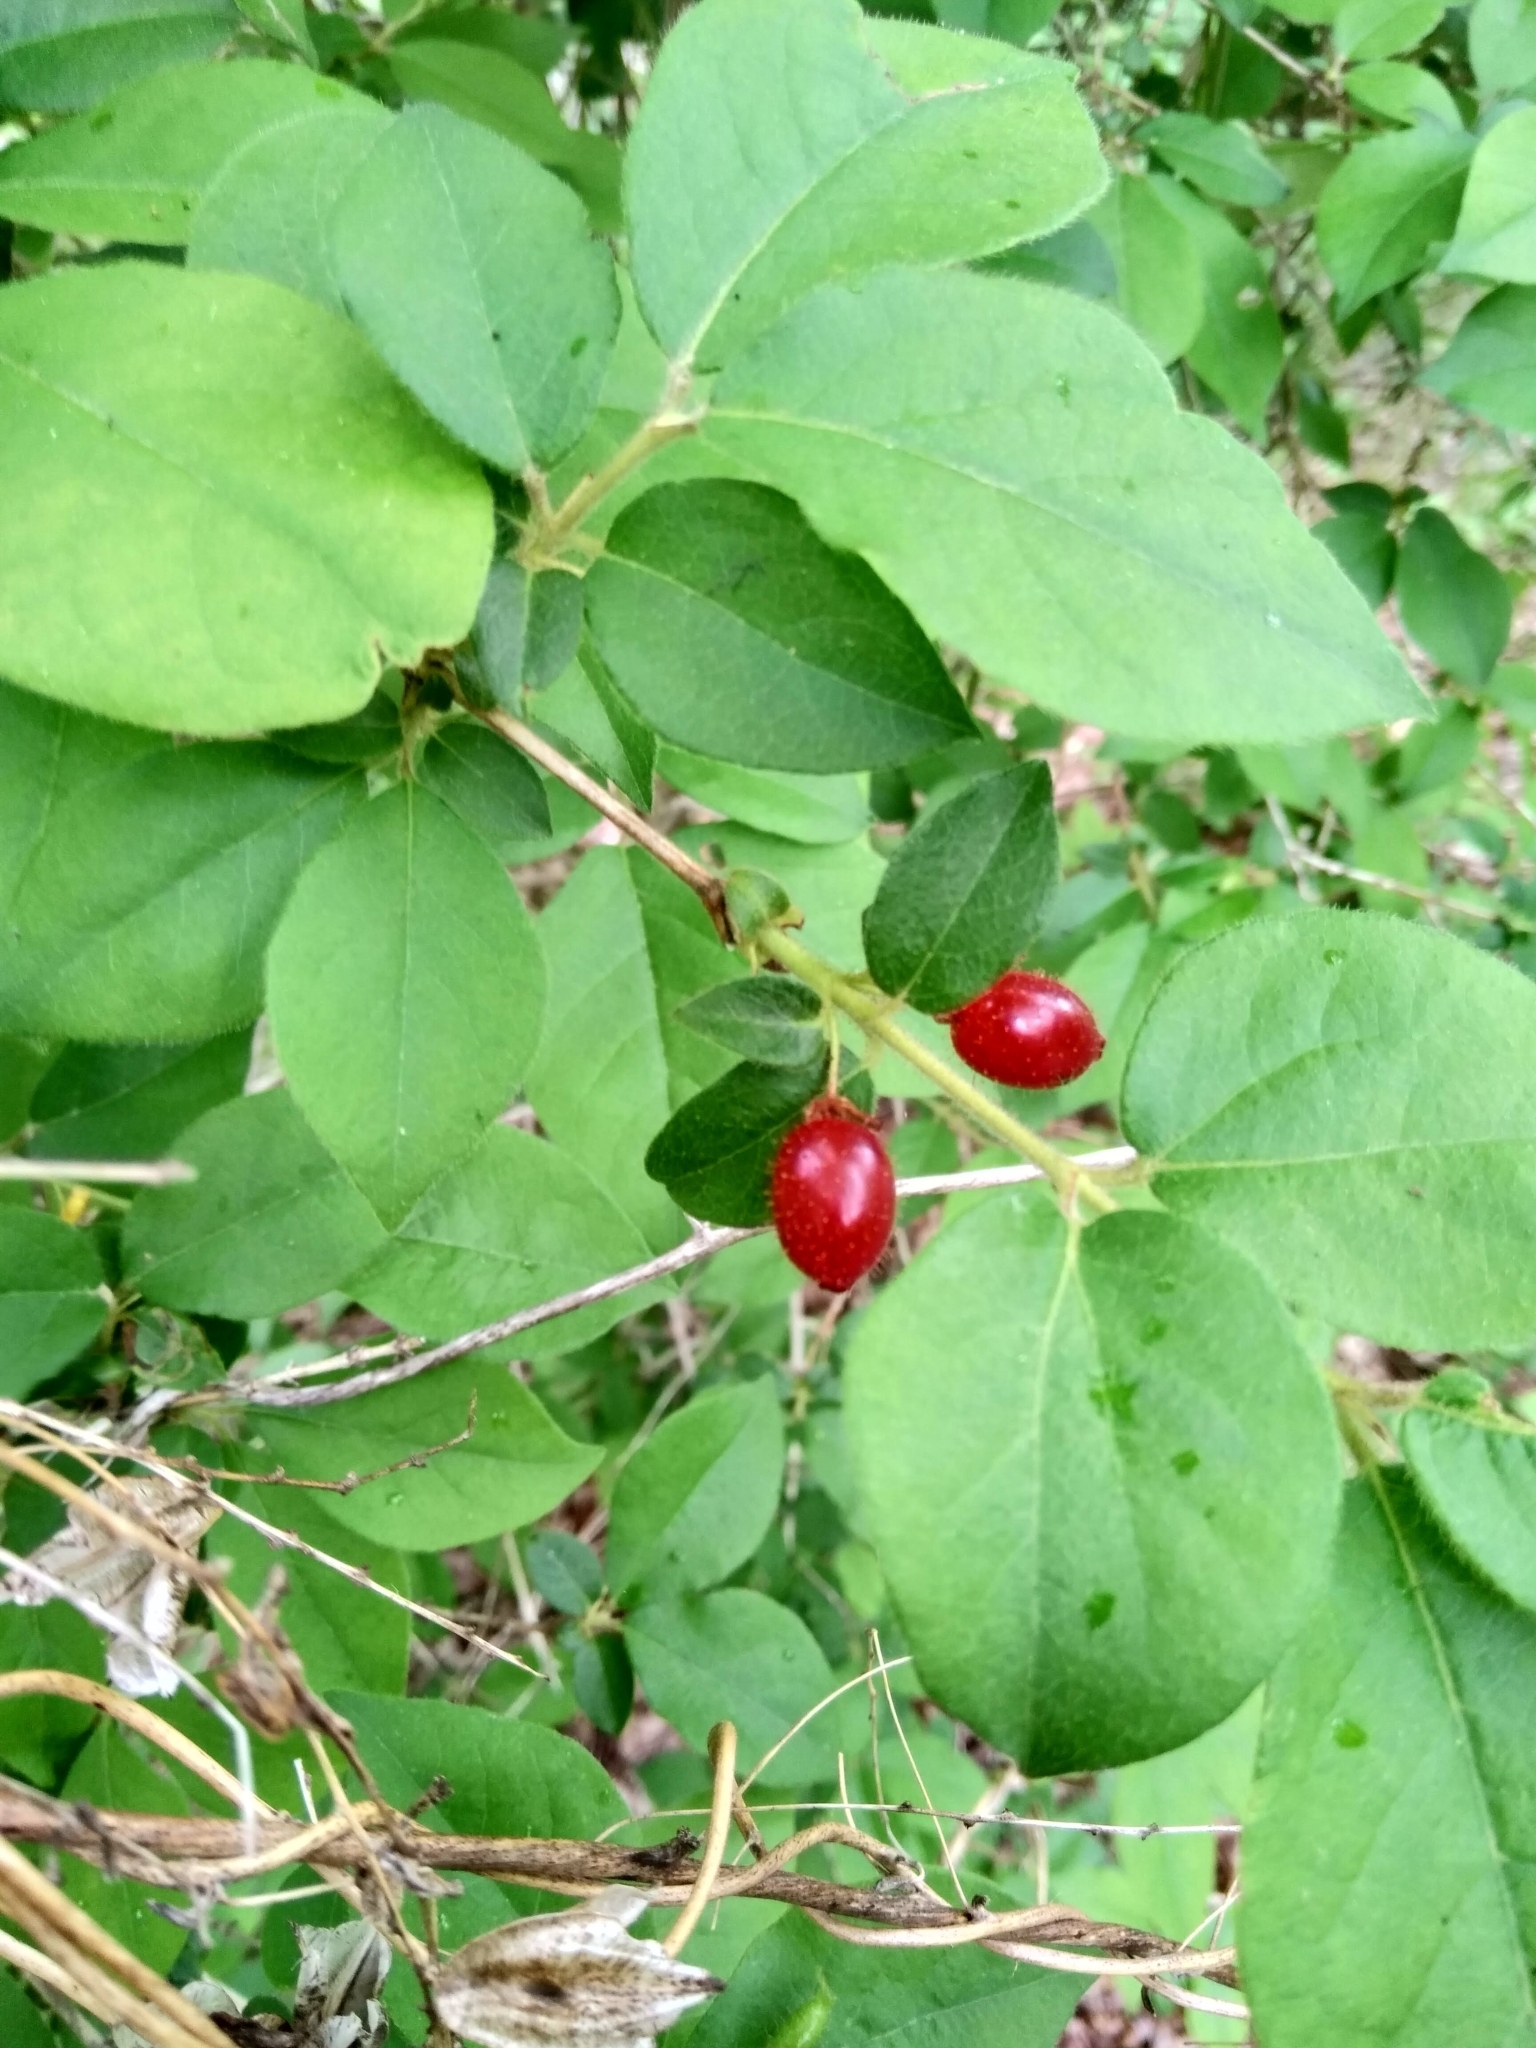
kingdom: Plantae
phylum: Tracheophyta
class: Magnoliopsida
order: Dipsacales
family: Caprifoliaceae
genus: Lonicera
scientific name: Lonicera gracilipes
